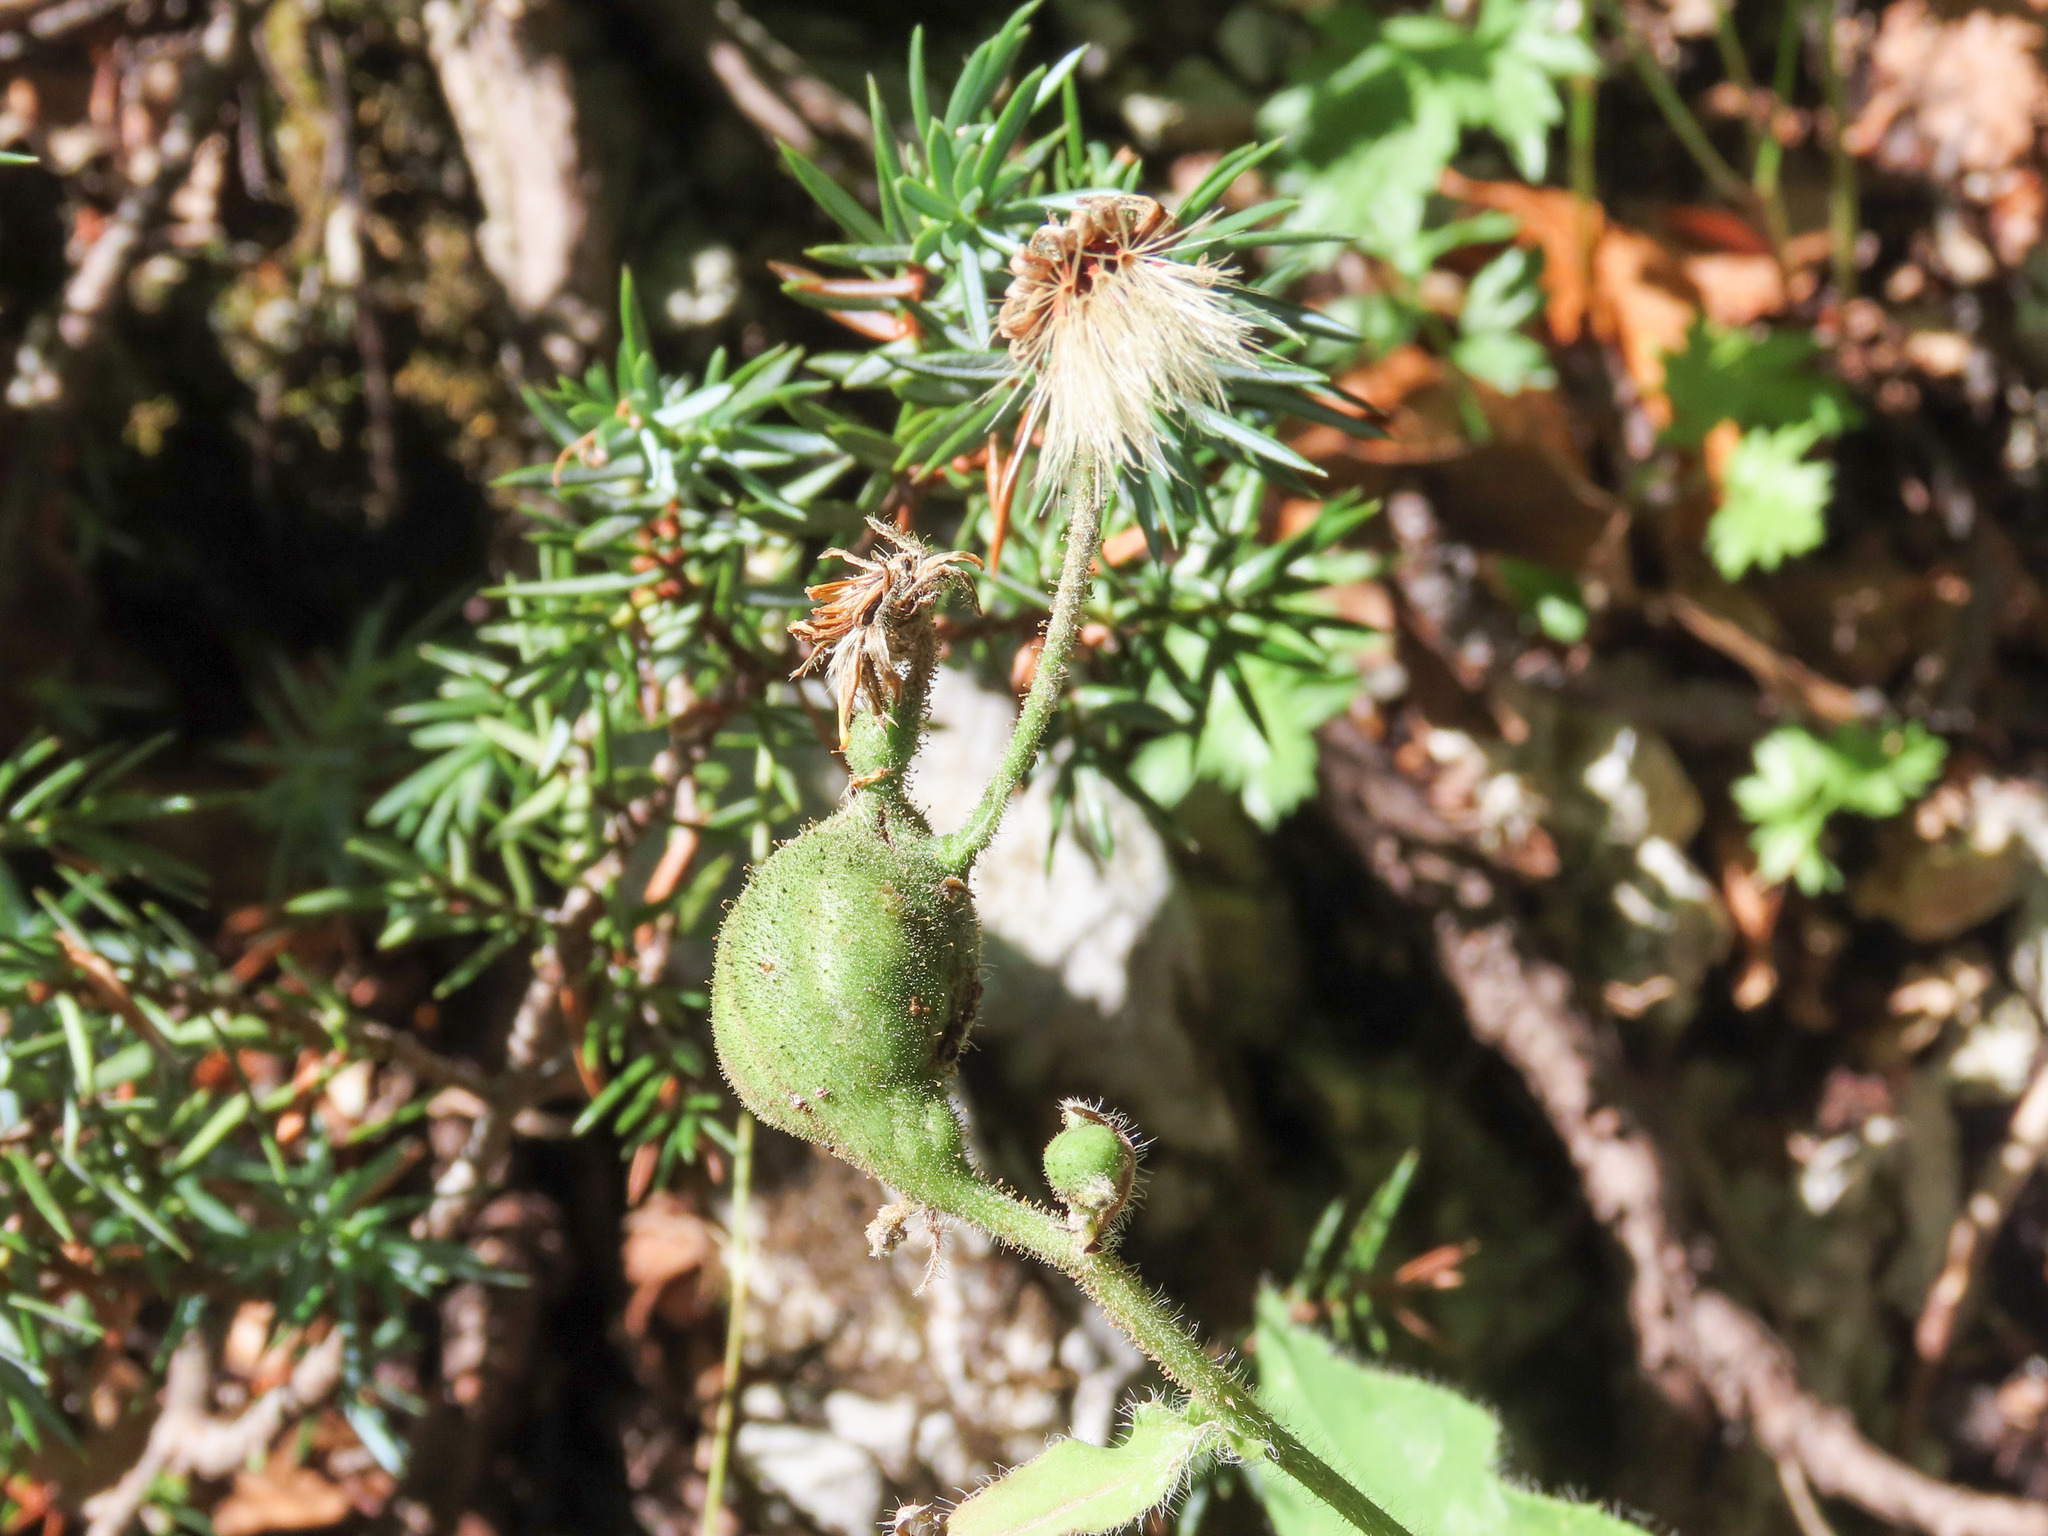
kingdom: Animalia
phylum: Arthropoda
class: Insecta
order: Hymenoptera
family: Cynipidae
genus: Aulacidea
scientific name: Aulacidea hieracii
